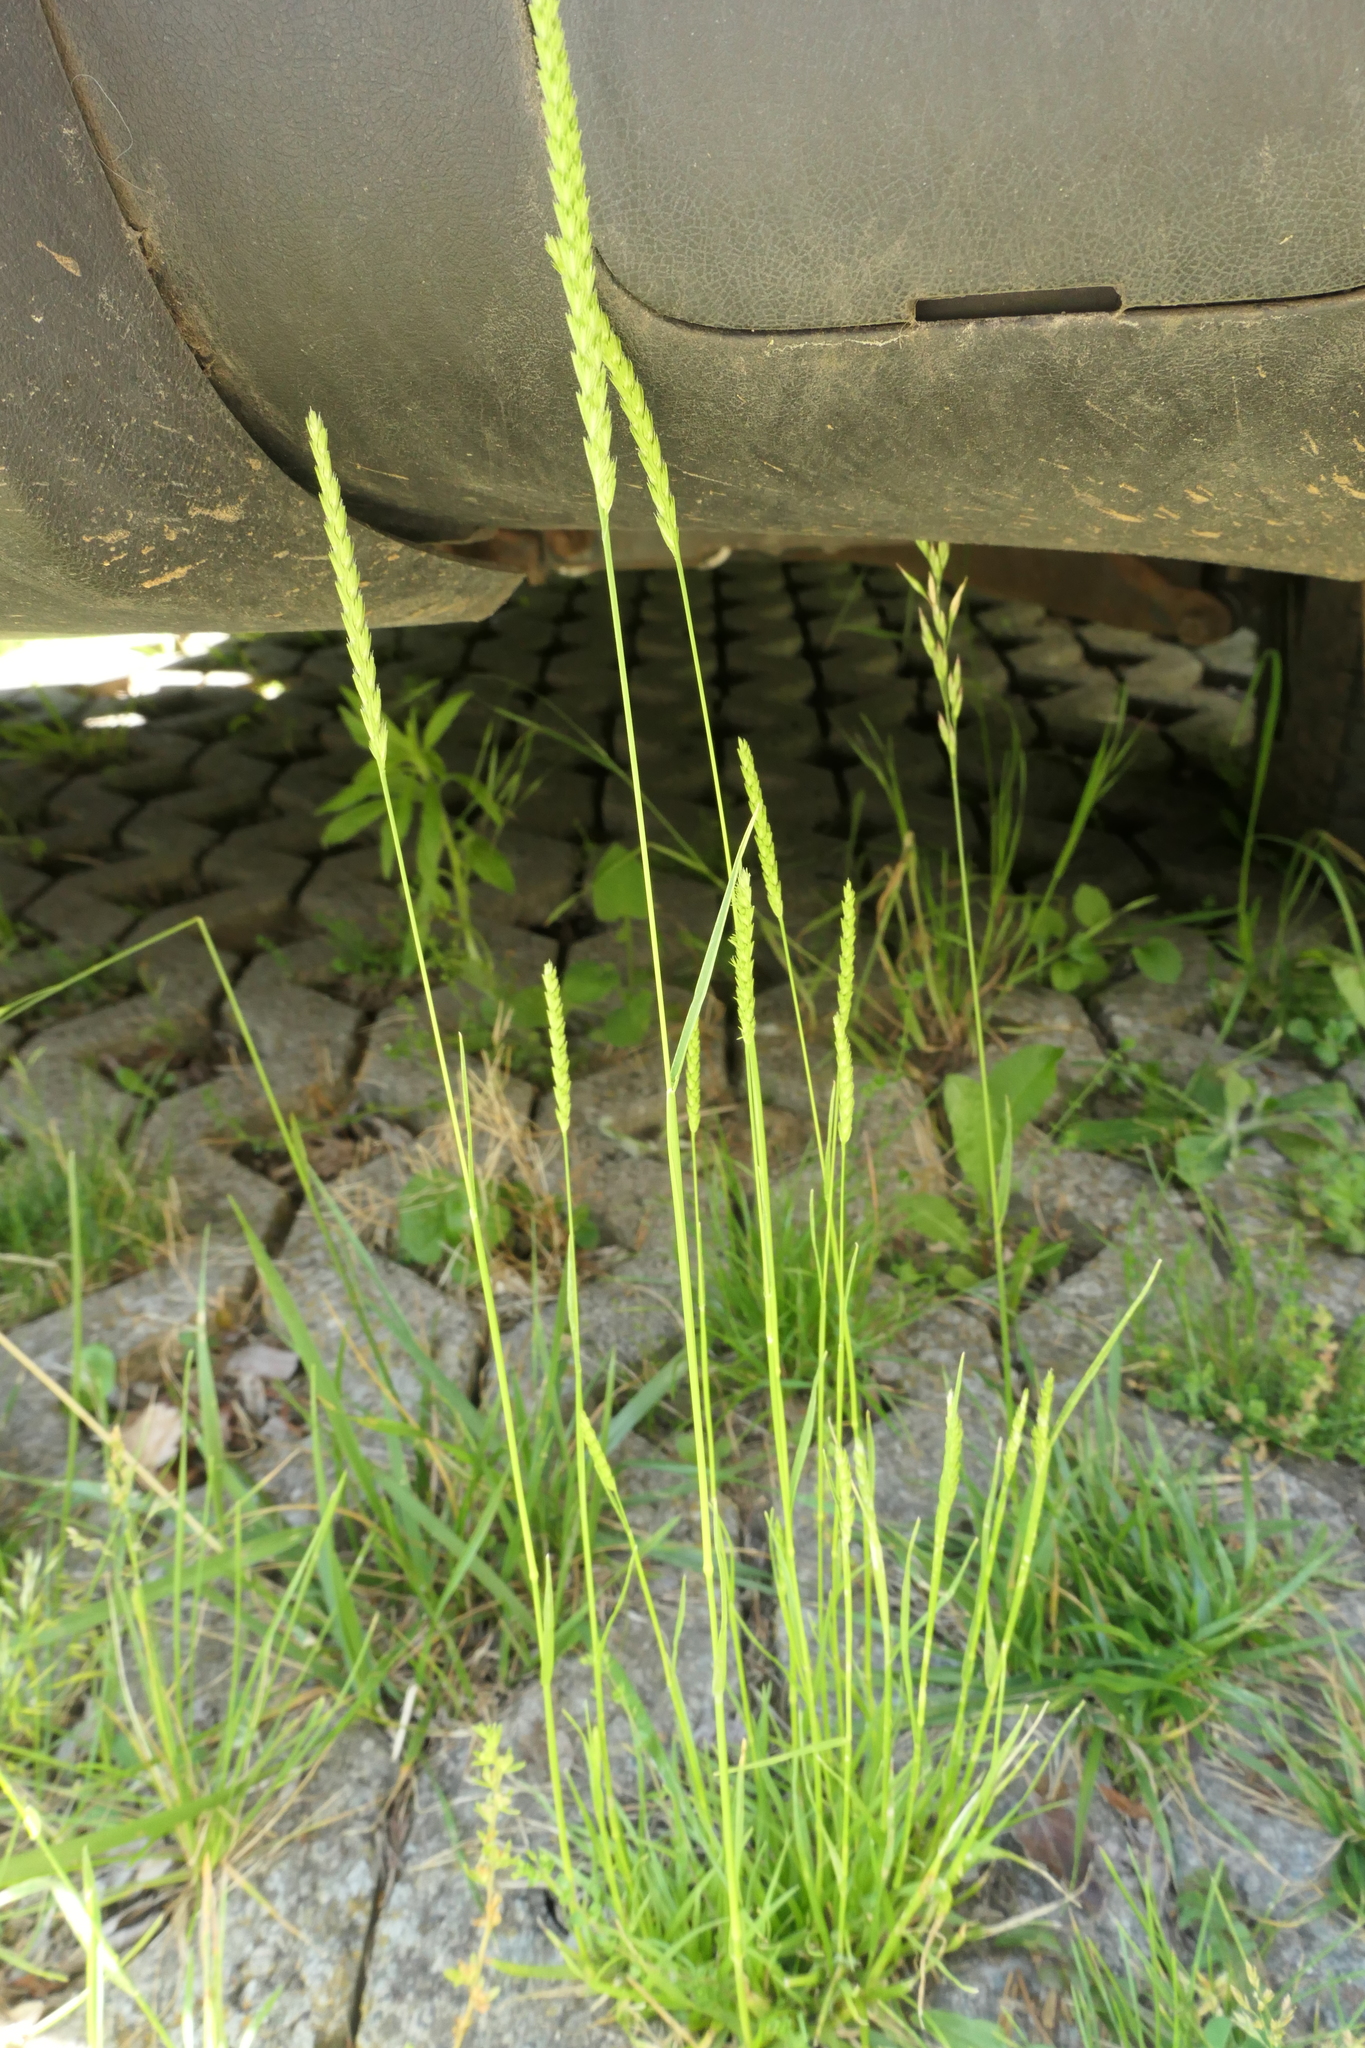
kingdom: Plantae
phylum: Tracheophyta
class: Liliopsida
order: Poales
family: Poaceae
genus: Cynosurus
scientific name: Cynosurus cristatus
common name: Crested dog's-tail
